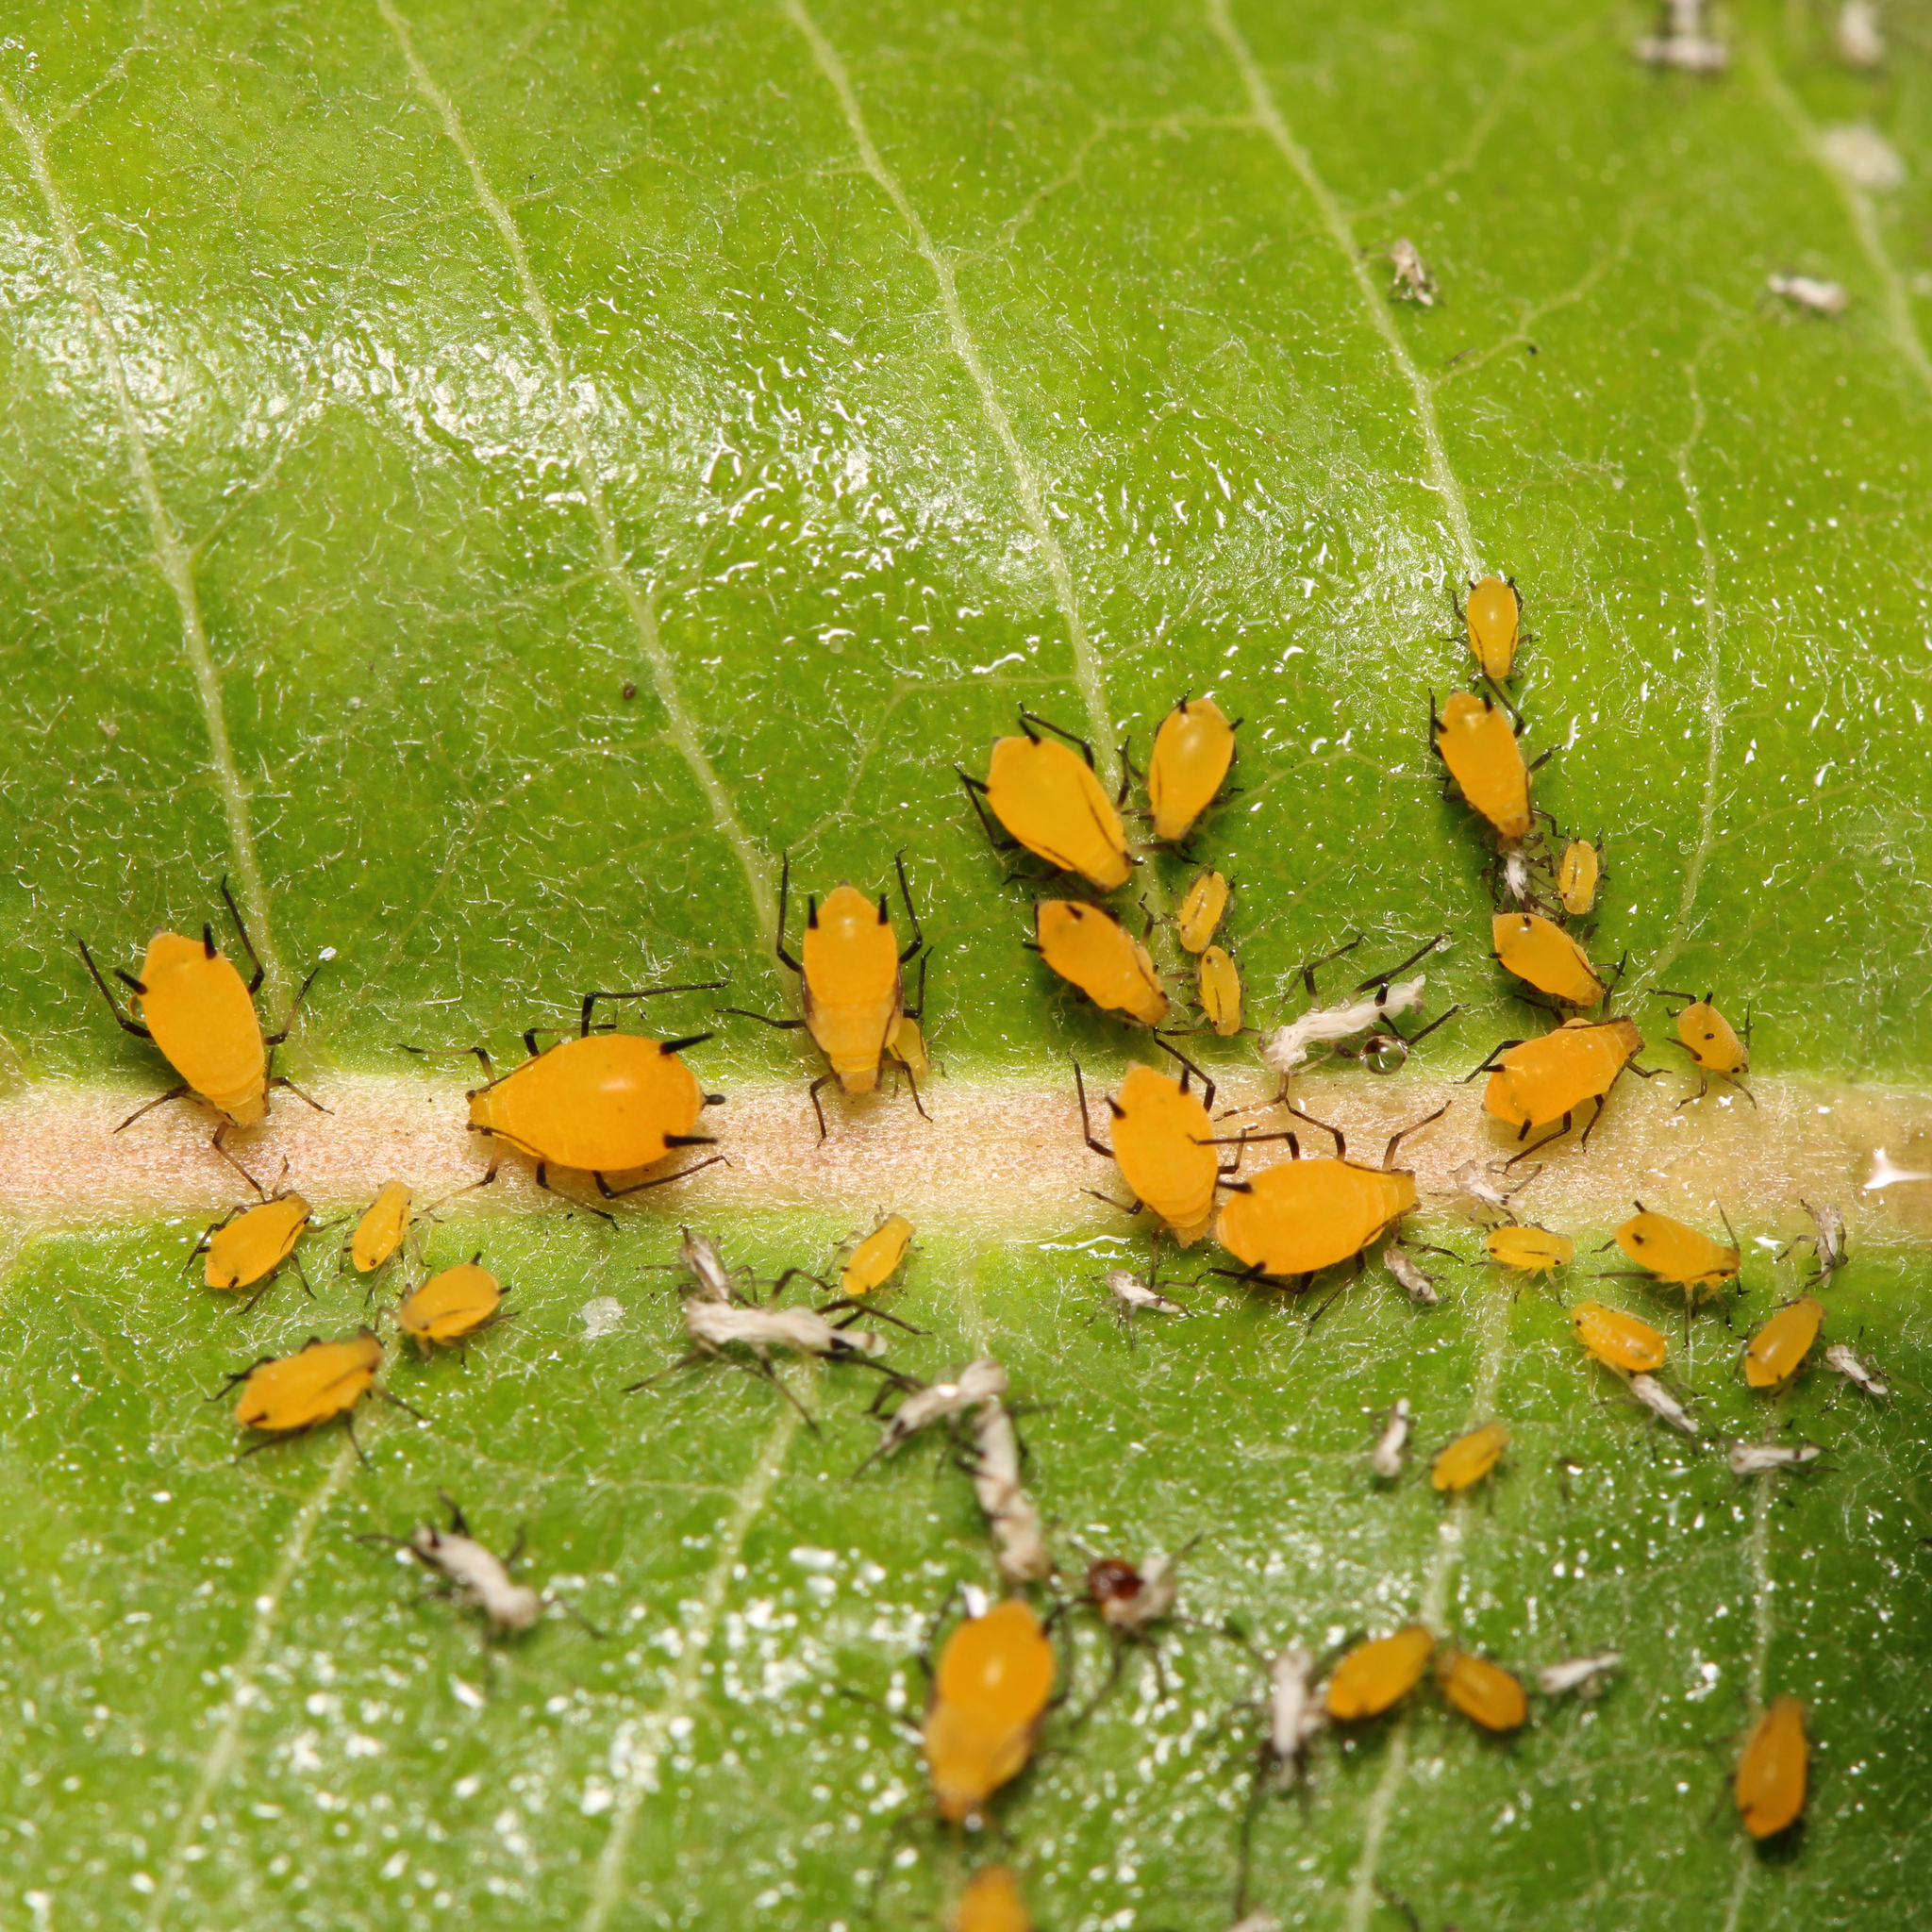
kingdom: Animalia
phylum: Arthropoda
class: Insecta
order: Hemiptera
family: Aphididae
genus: Aphis
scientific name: Aphis nerii
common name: Oleander aphid
